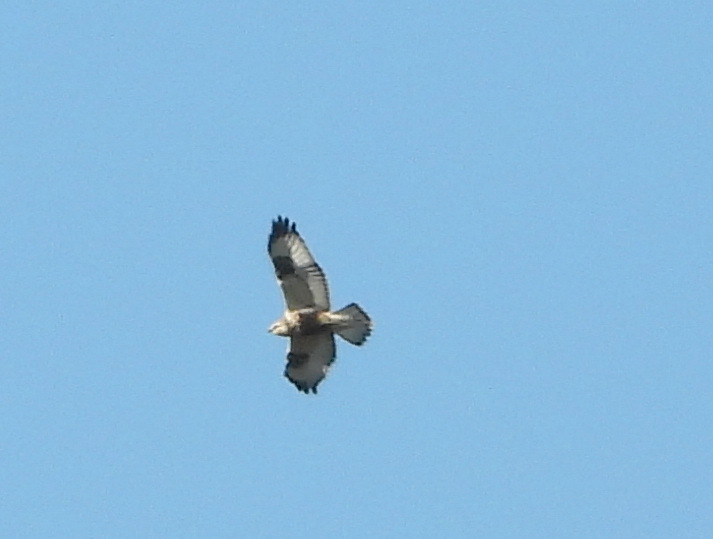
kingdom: Animalia
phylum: Chordata
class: Aves
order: Accipitriformes
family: Accipitridae
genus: Buteo
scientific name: Buteo lagopus
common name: Rough-legged buzzard
